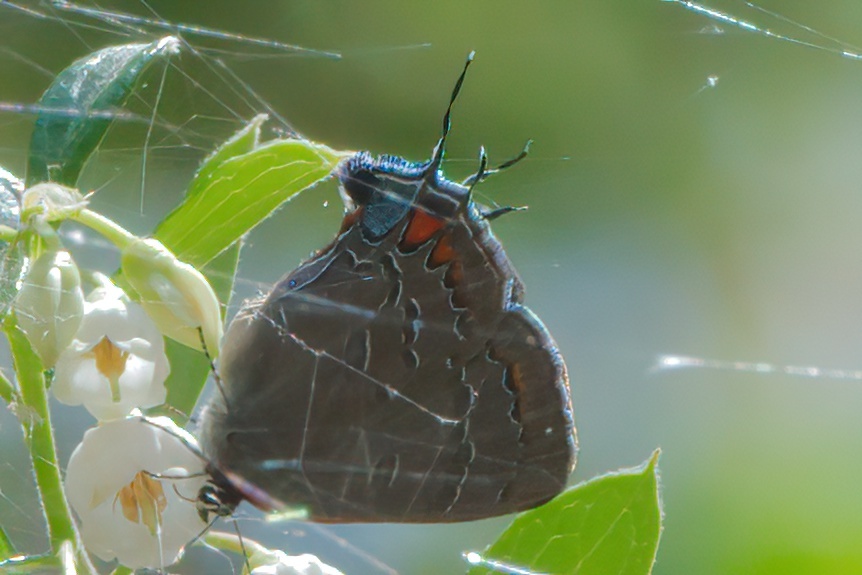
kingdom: Animalia
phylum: Arthropoda
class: Insecta
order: Lepidoptera
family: Lycaenidae
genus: Satyrium
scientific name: Satyrium calanus
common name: Banded hairstreak
